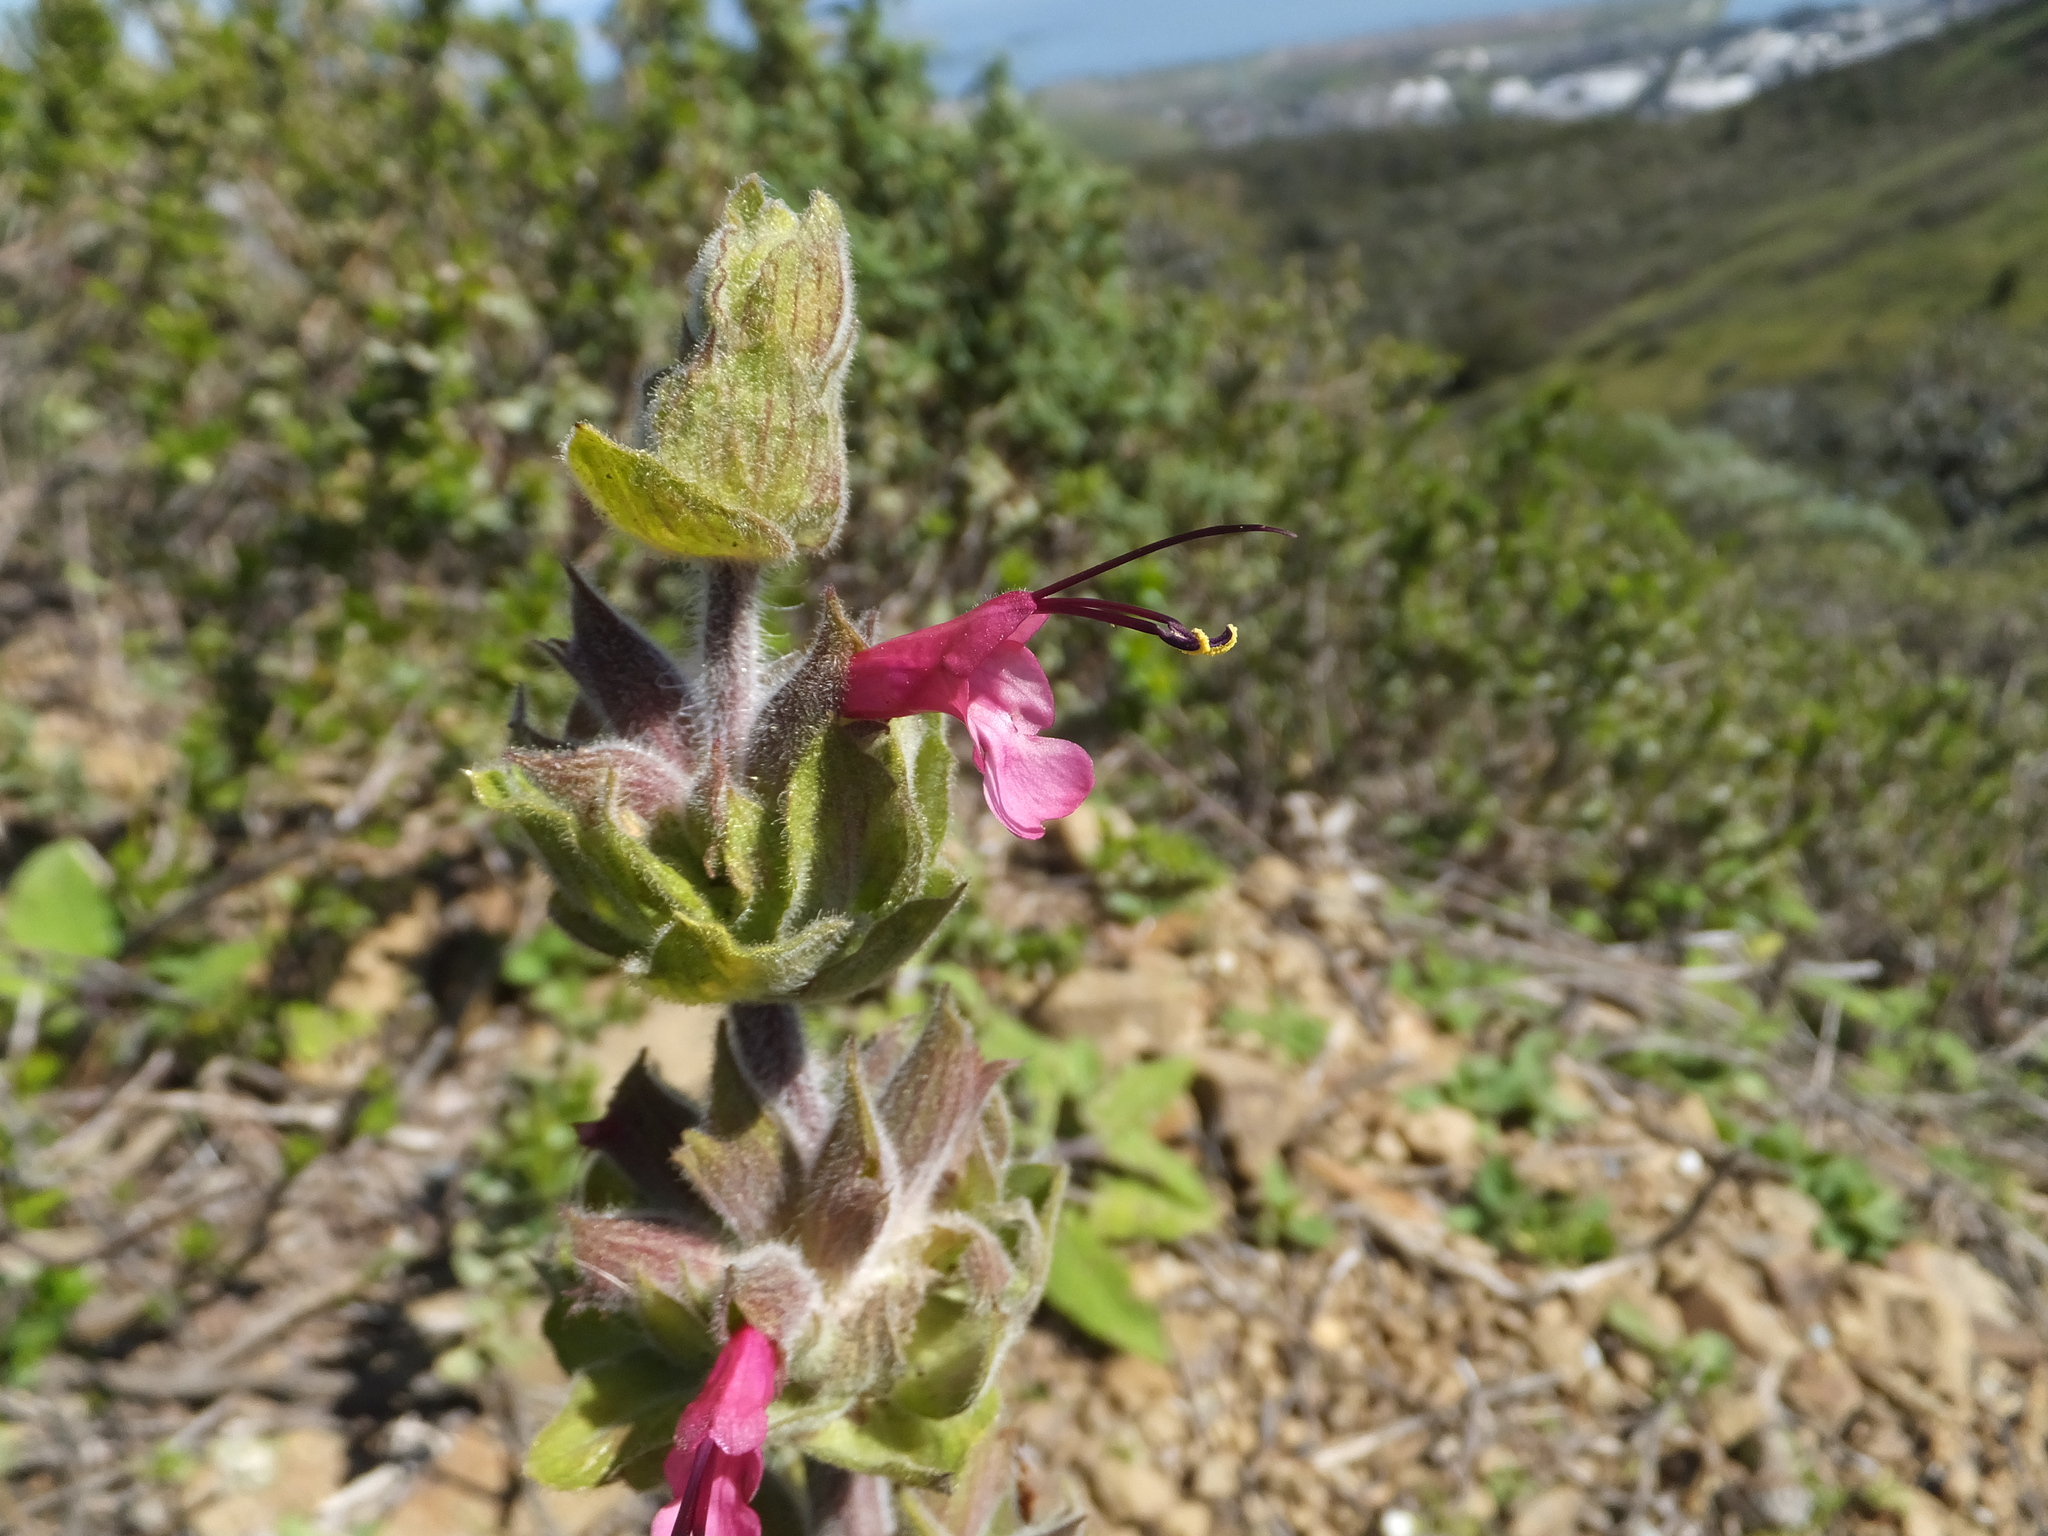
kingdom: Plantae
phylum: Tracheophyta
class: Magnoliopsida
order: Lamiales
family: Lamiaceae
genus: Salvia
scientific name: Salvia spathacea
